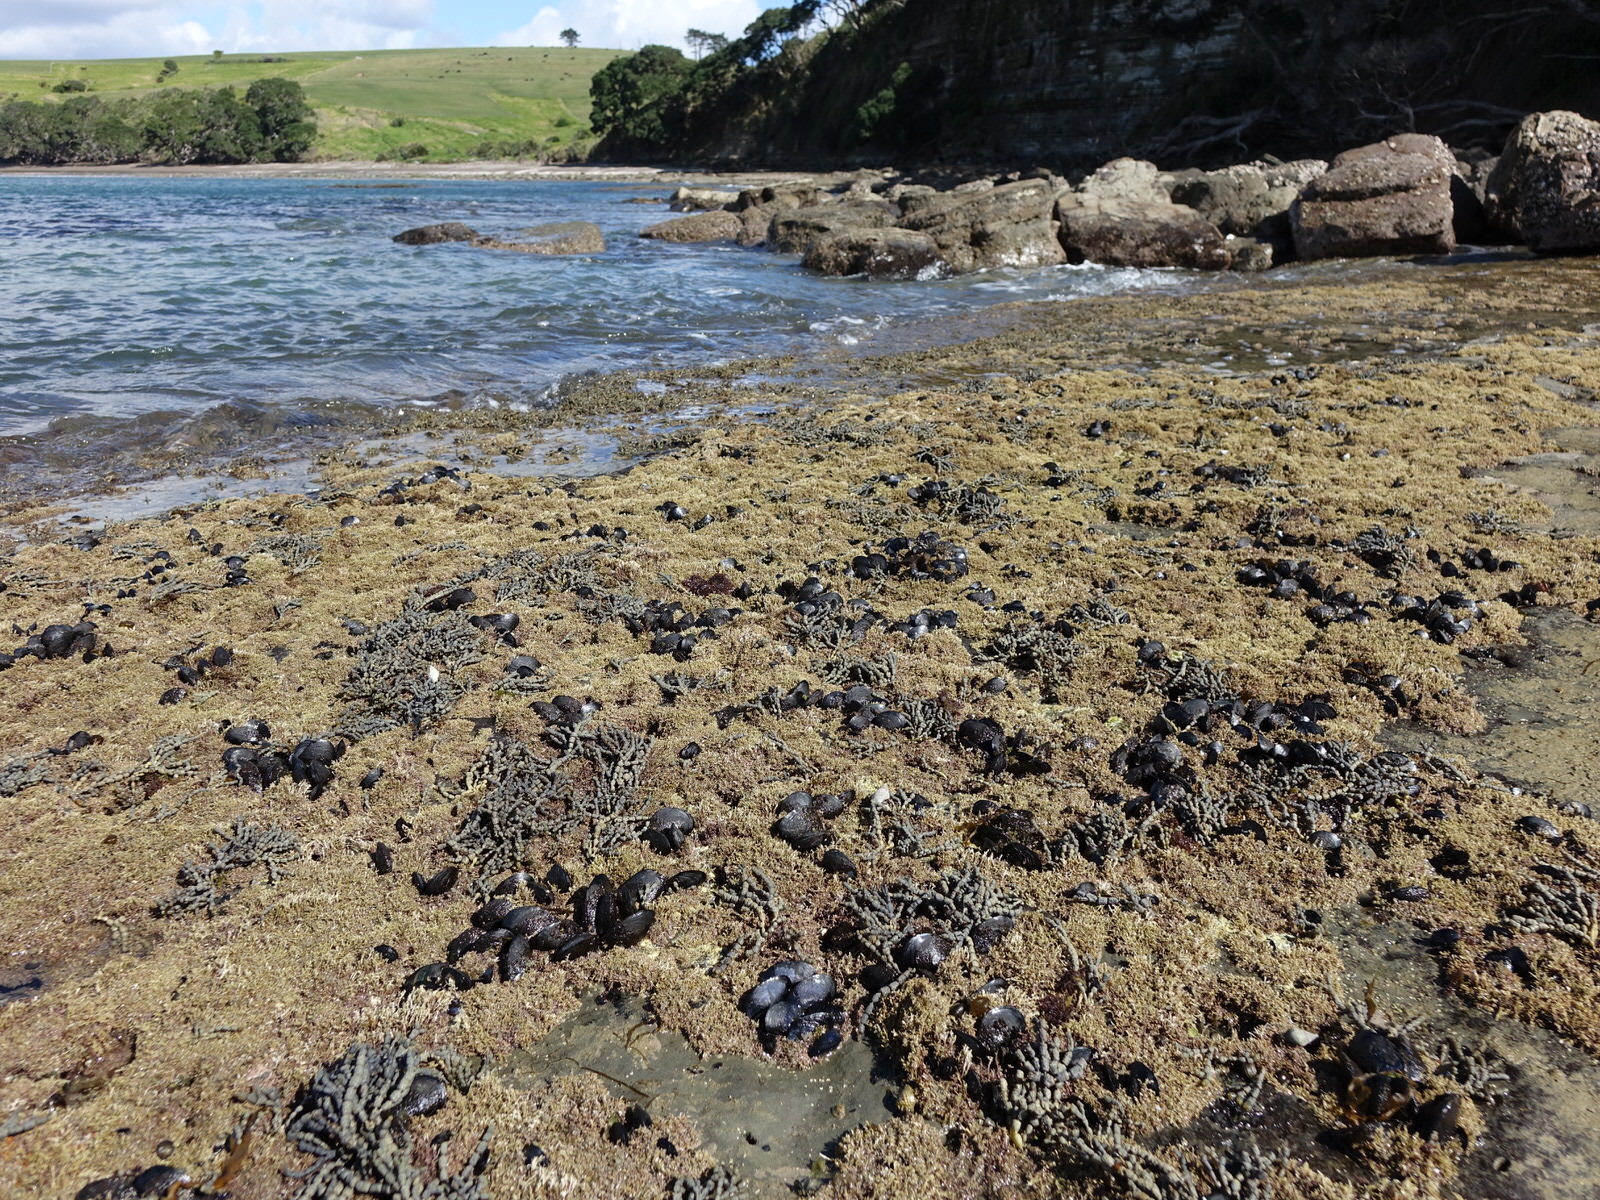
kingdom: Animalia
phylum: Mollusca
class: Bivalvia
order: Mytilida
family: Mytilidae
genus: Mytilus
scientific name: Mytilus planulatus
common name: Australian mussel
